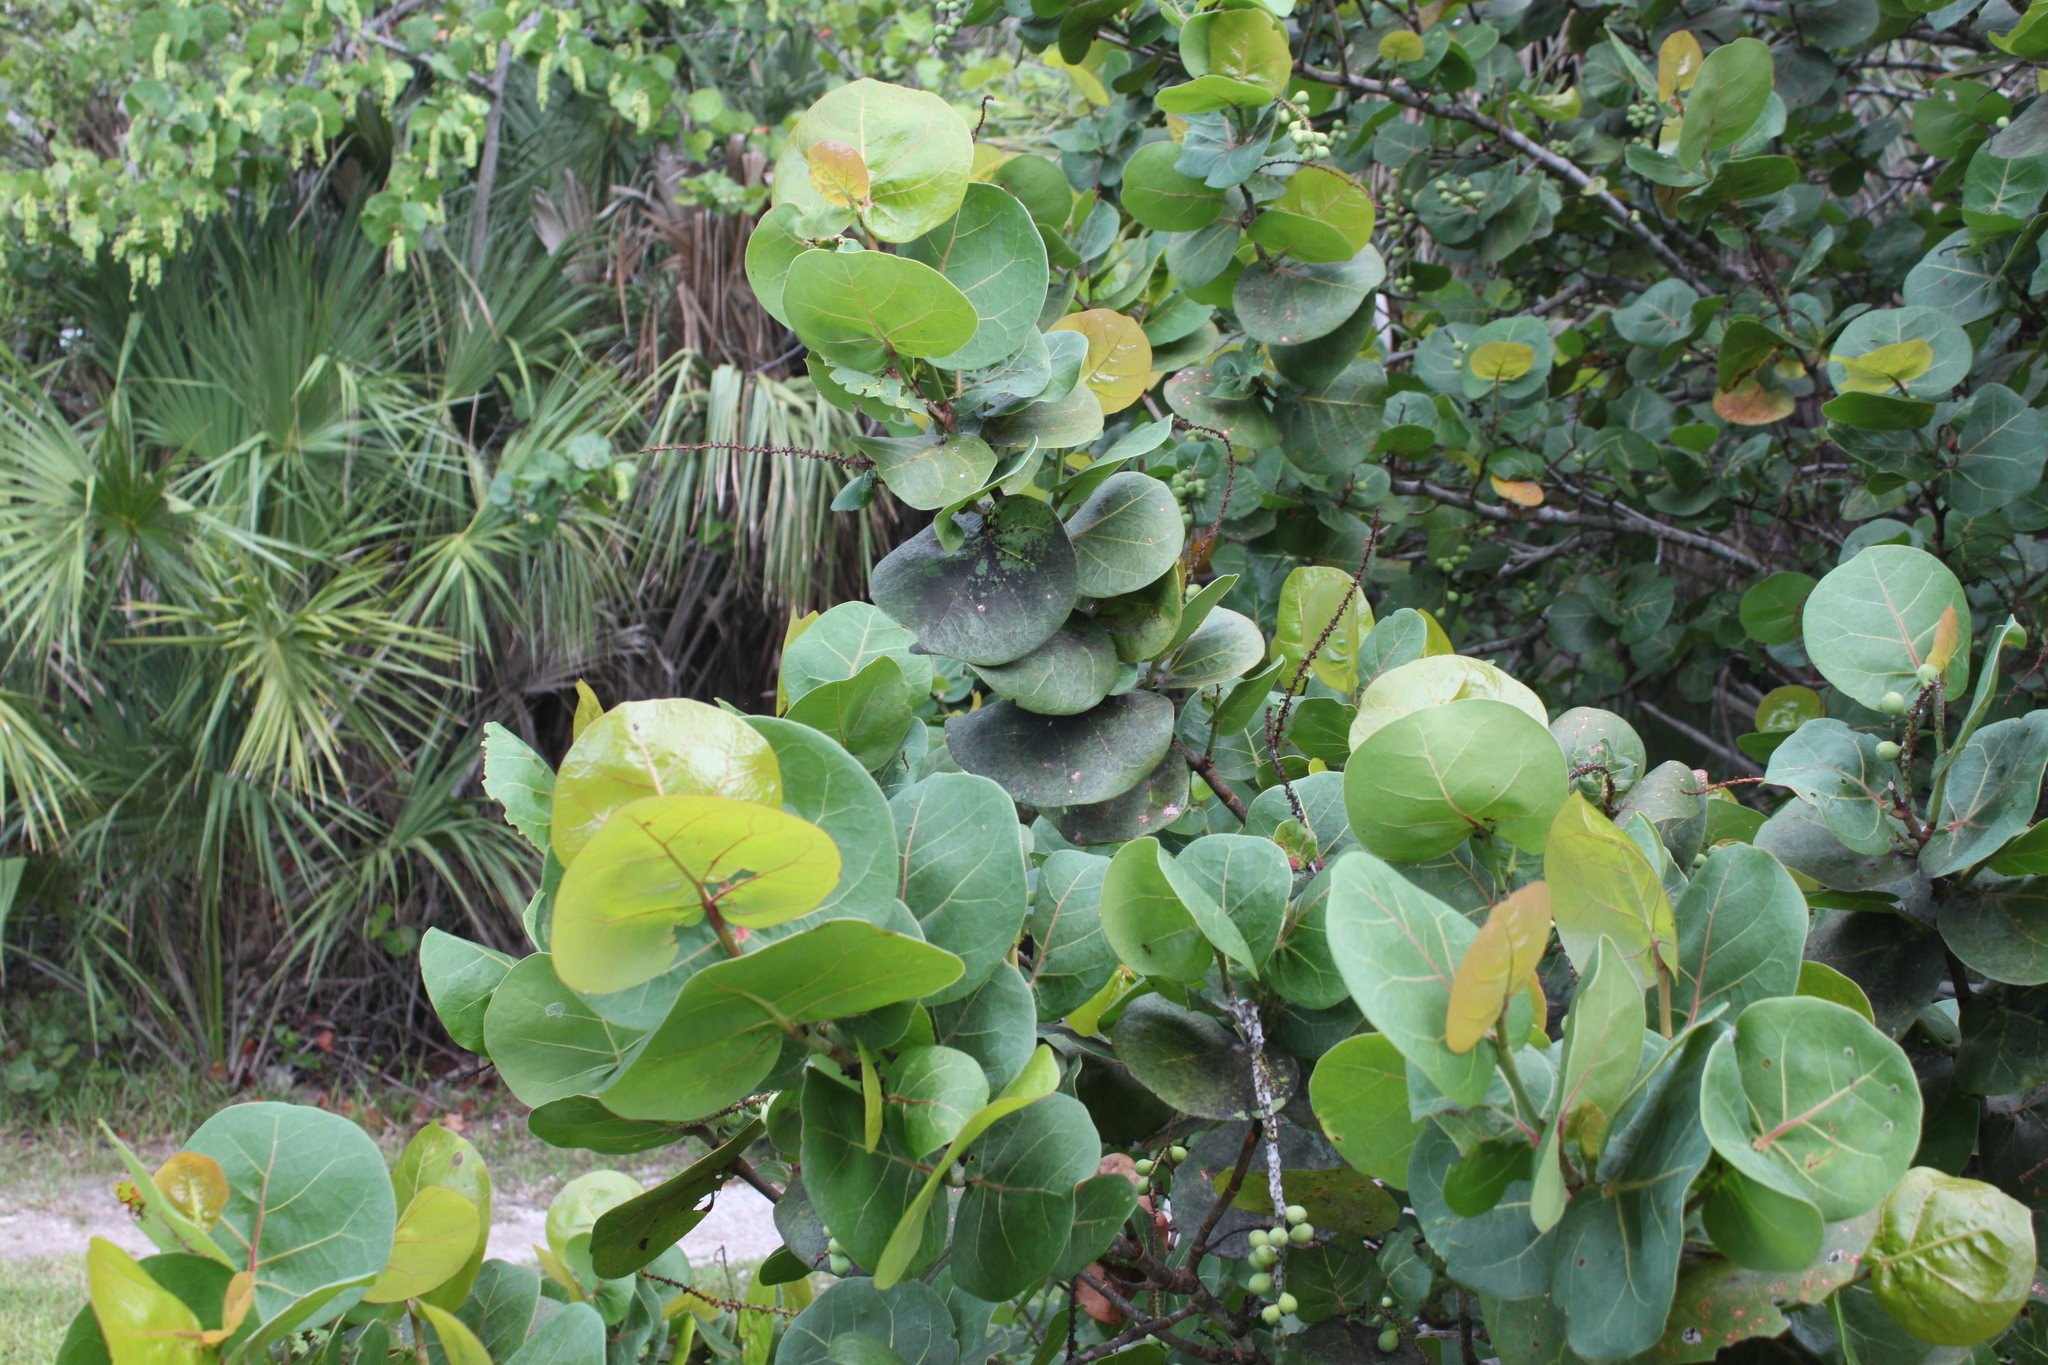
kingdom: Plantae
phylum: Tracheophyta
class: Magnoliopsida
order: Caryophyllales
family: Polygonaceae
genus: Coccoloba
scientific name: Coccoloba uvifera
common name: Seagrape
